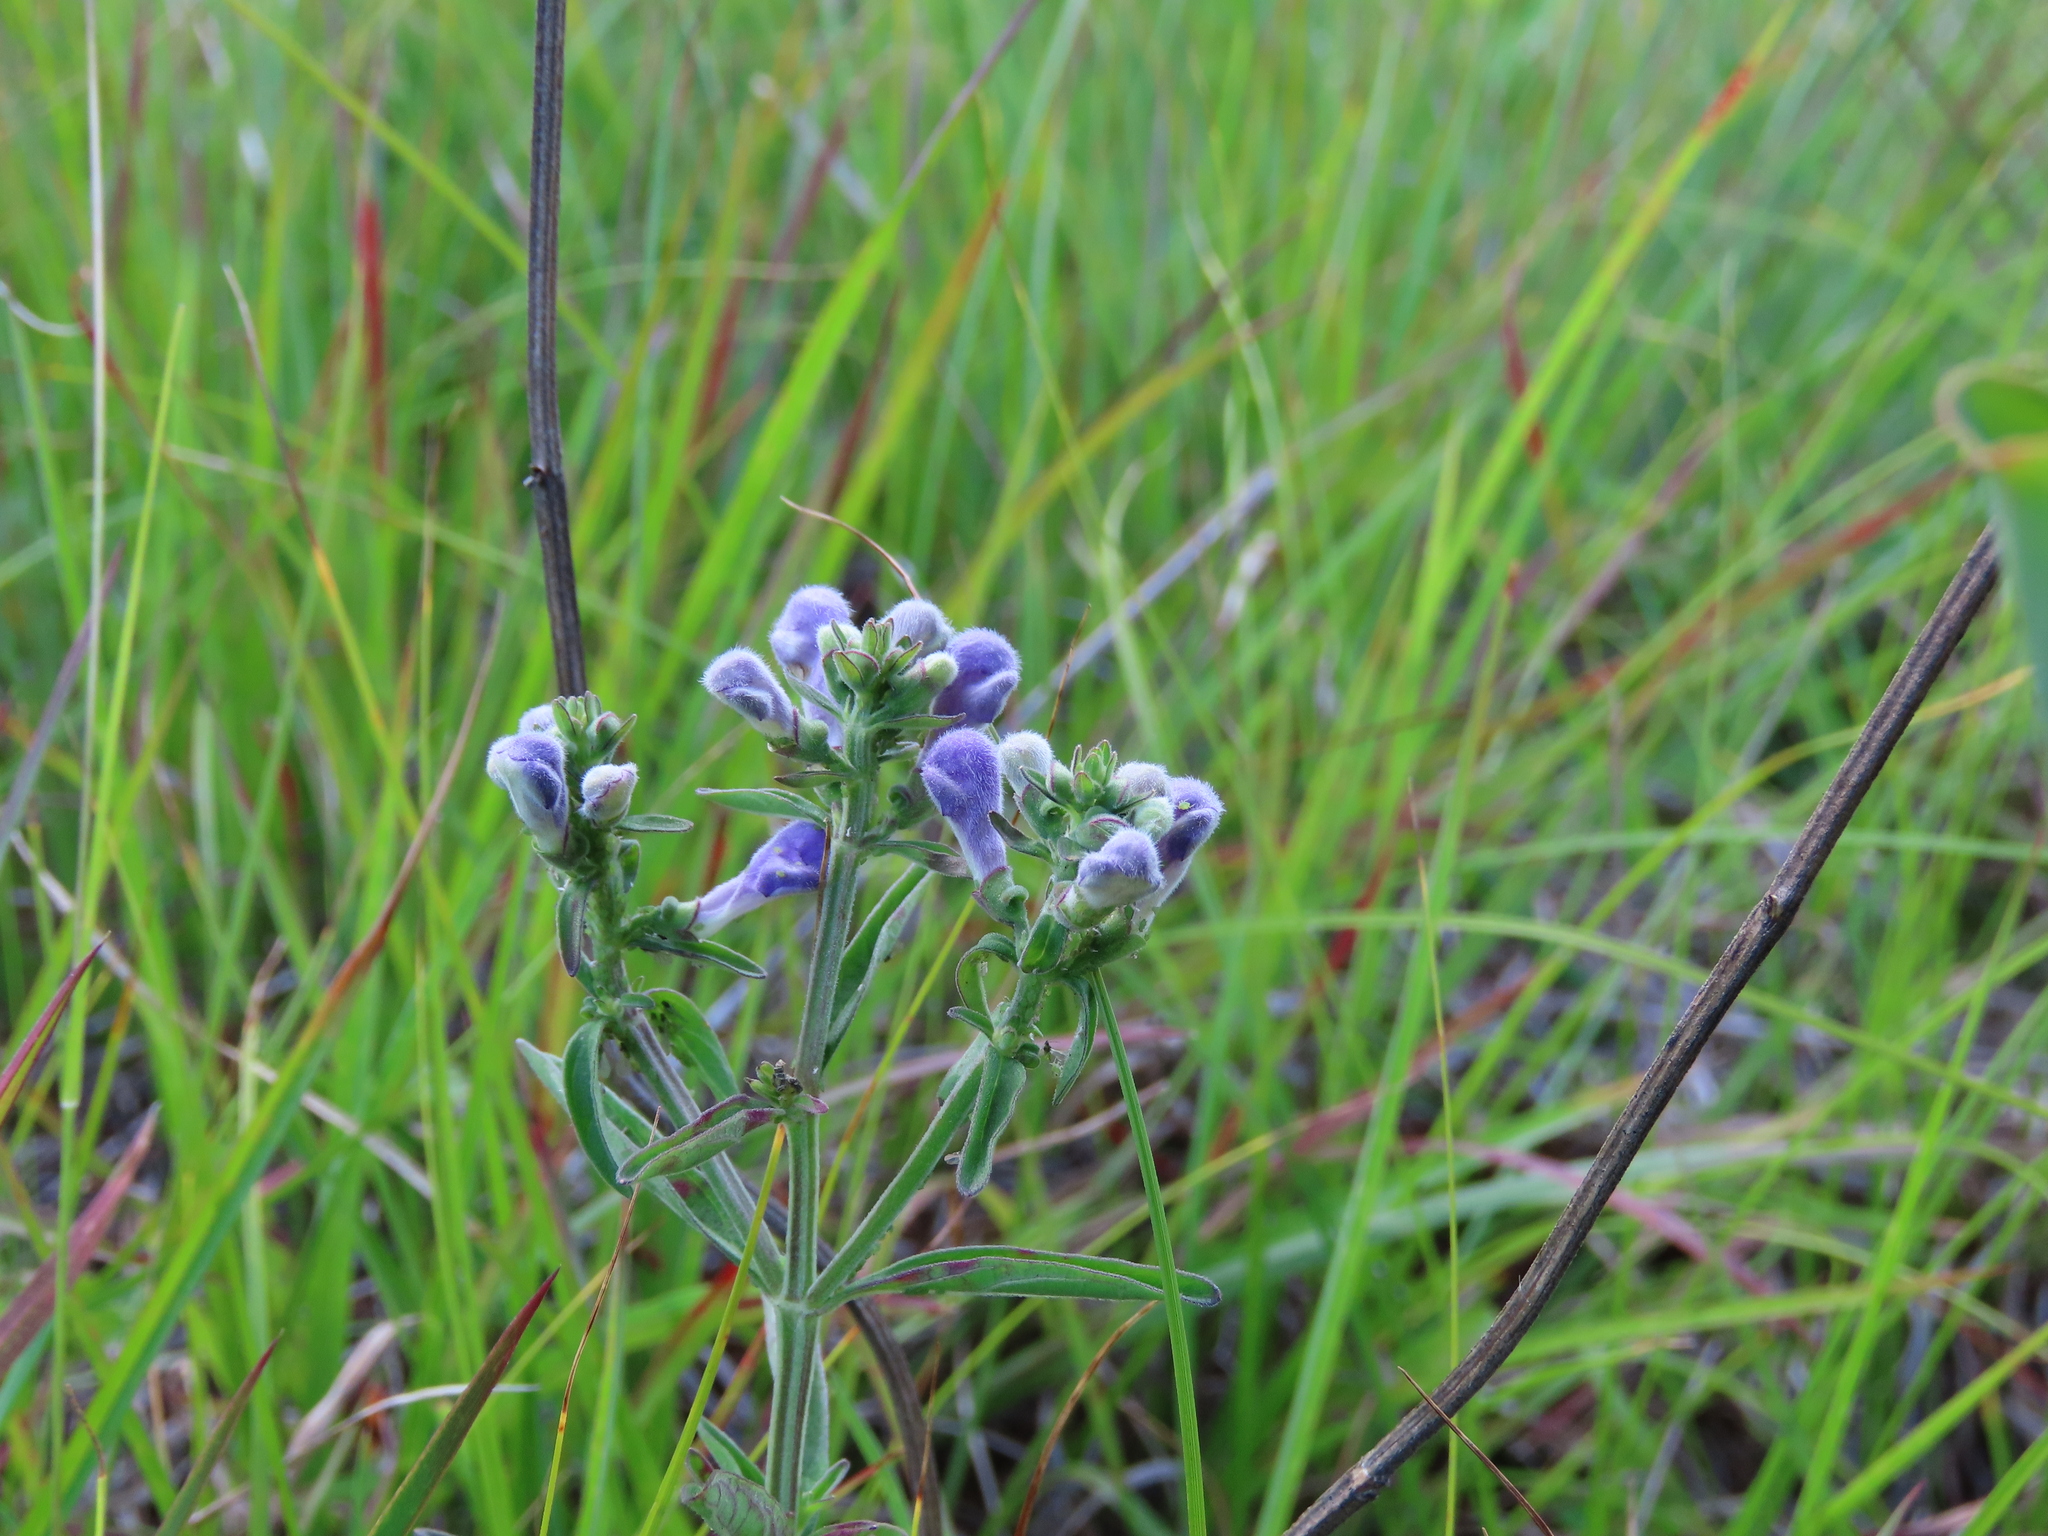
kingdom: Plantae
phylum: Tracheophyta
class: Magnoliopsida
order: Lamiales
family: Lamiaceae
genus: Scutellaria
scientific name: Scutellaria integrifolia
